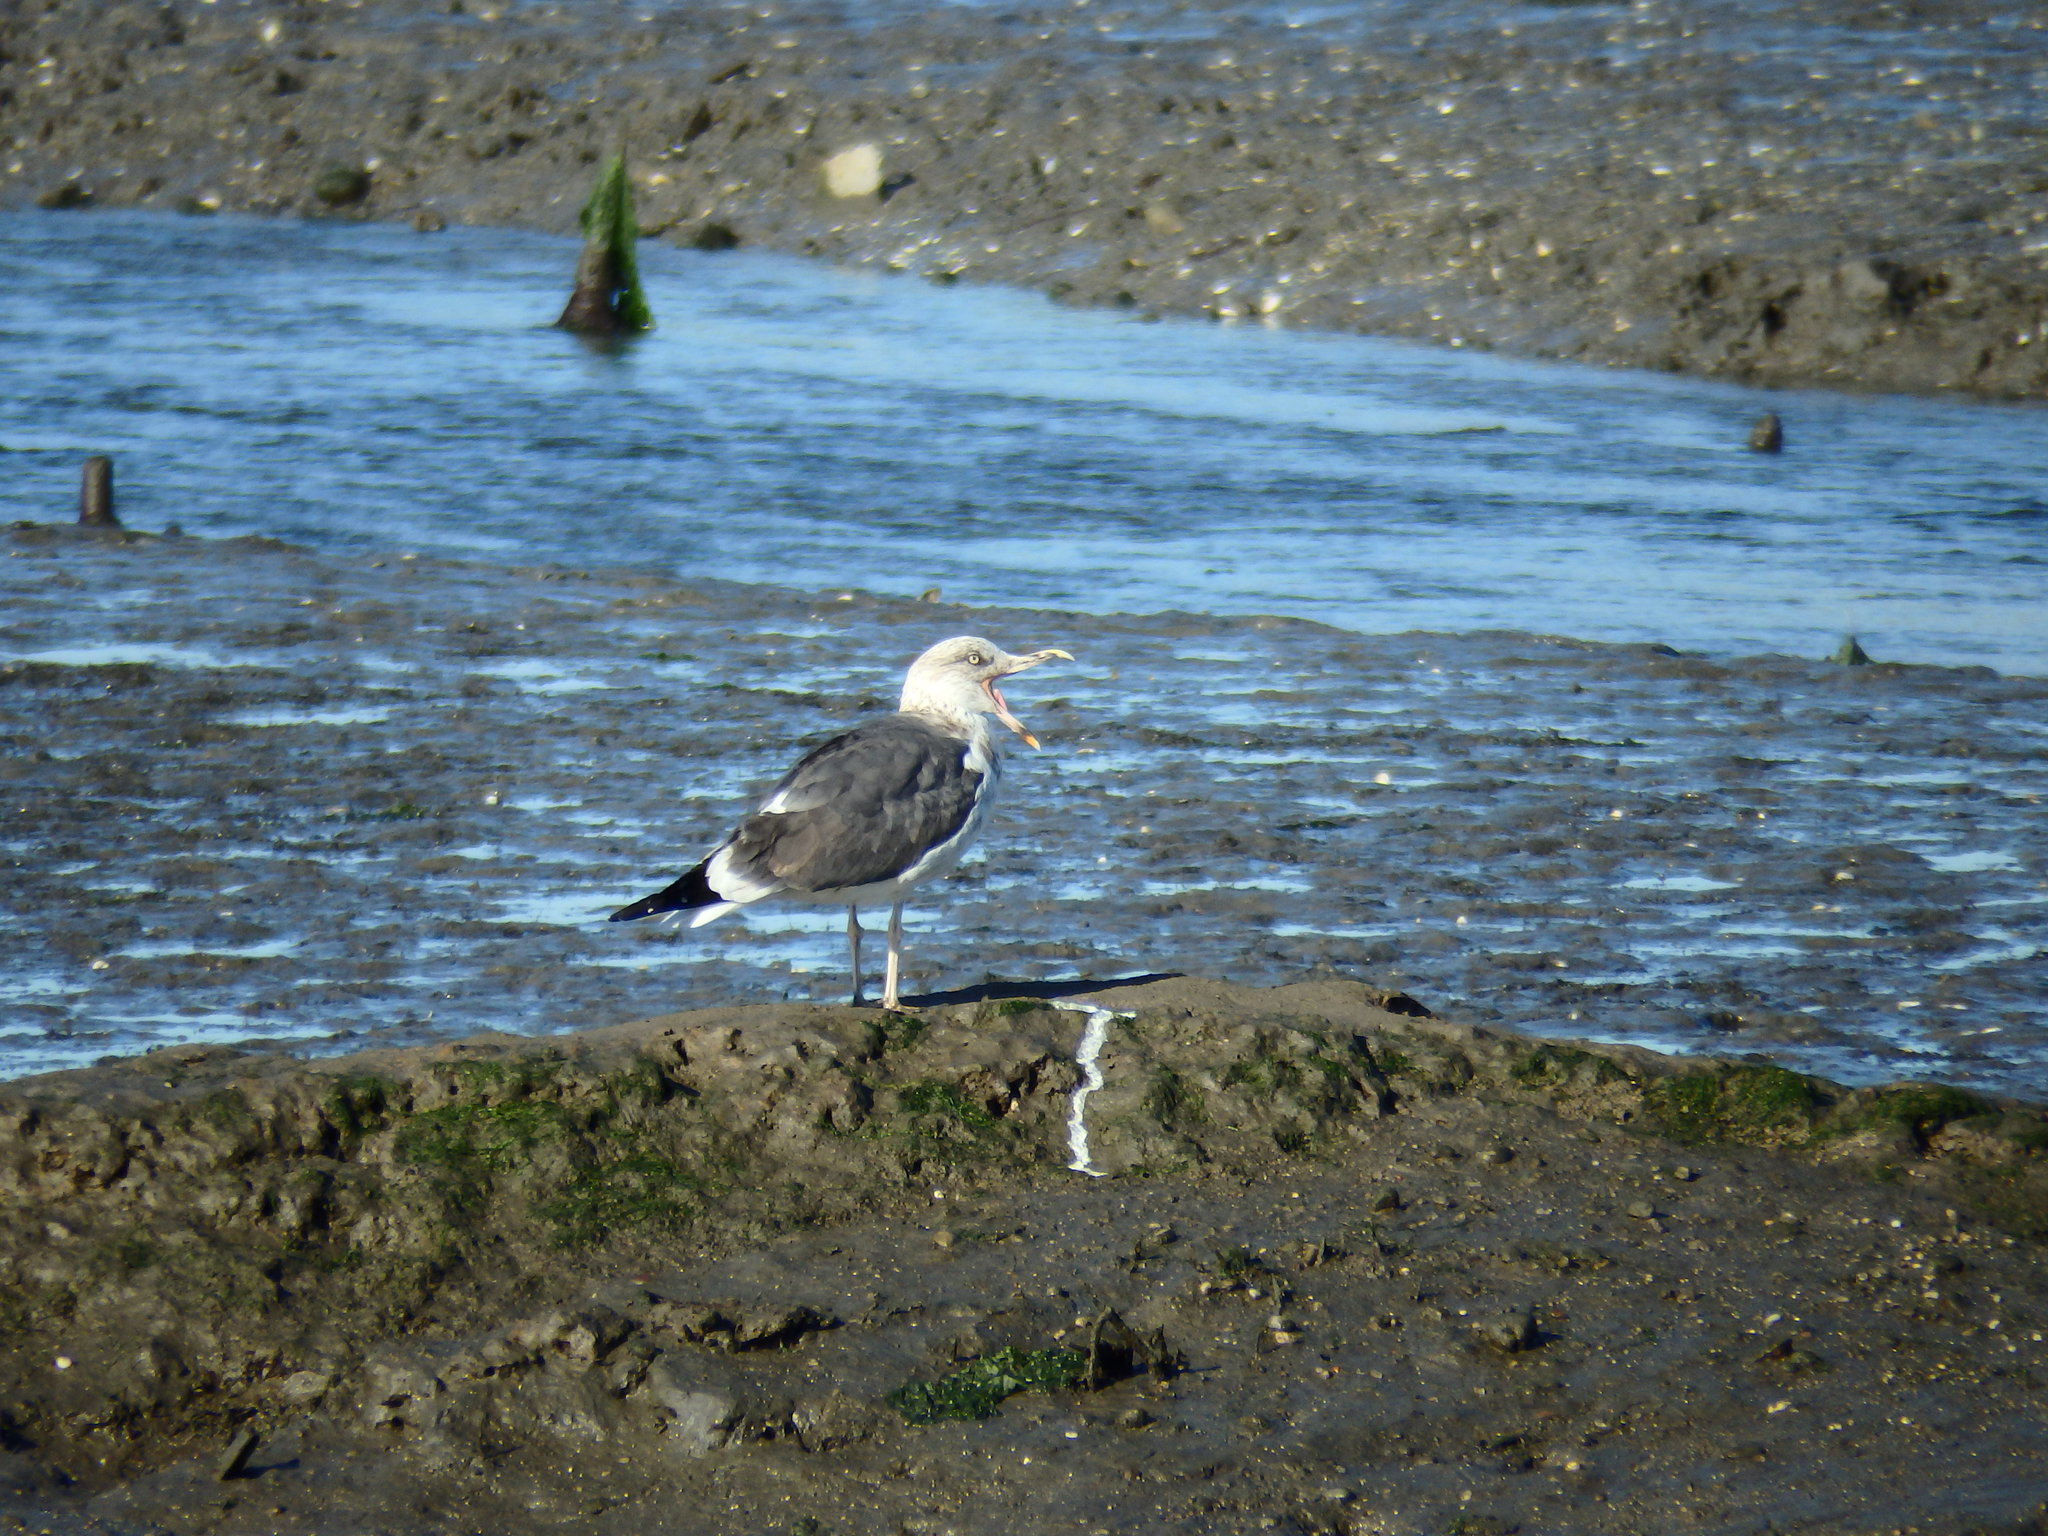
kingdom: Animalia
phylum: Chordata
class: Aves
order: Charadriiformes
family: Laridae
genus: Larus
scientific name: Larus fuscus
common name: Lesser black-backed gull
